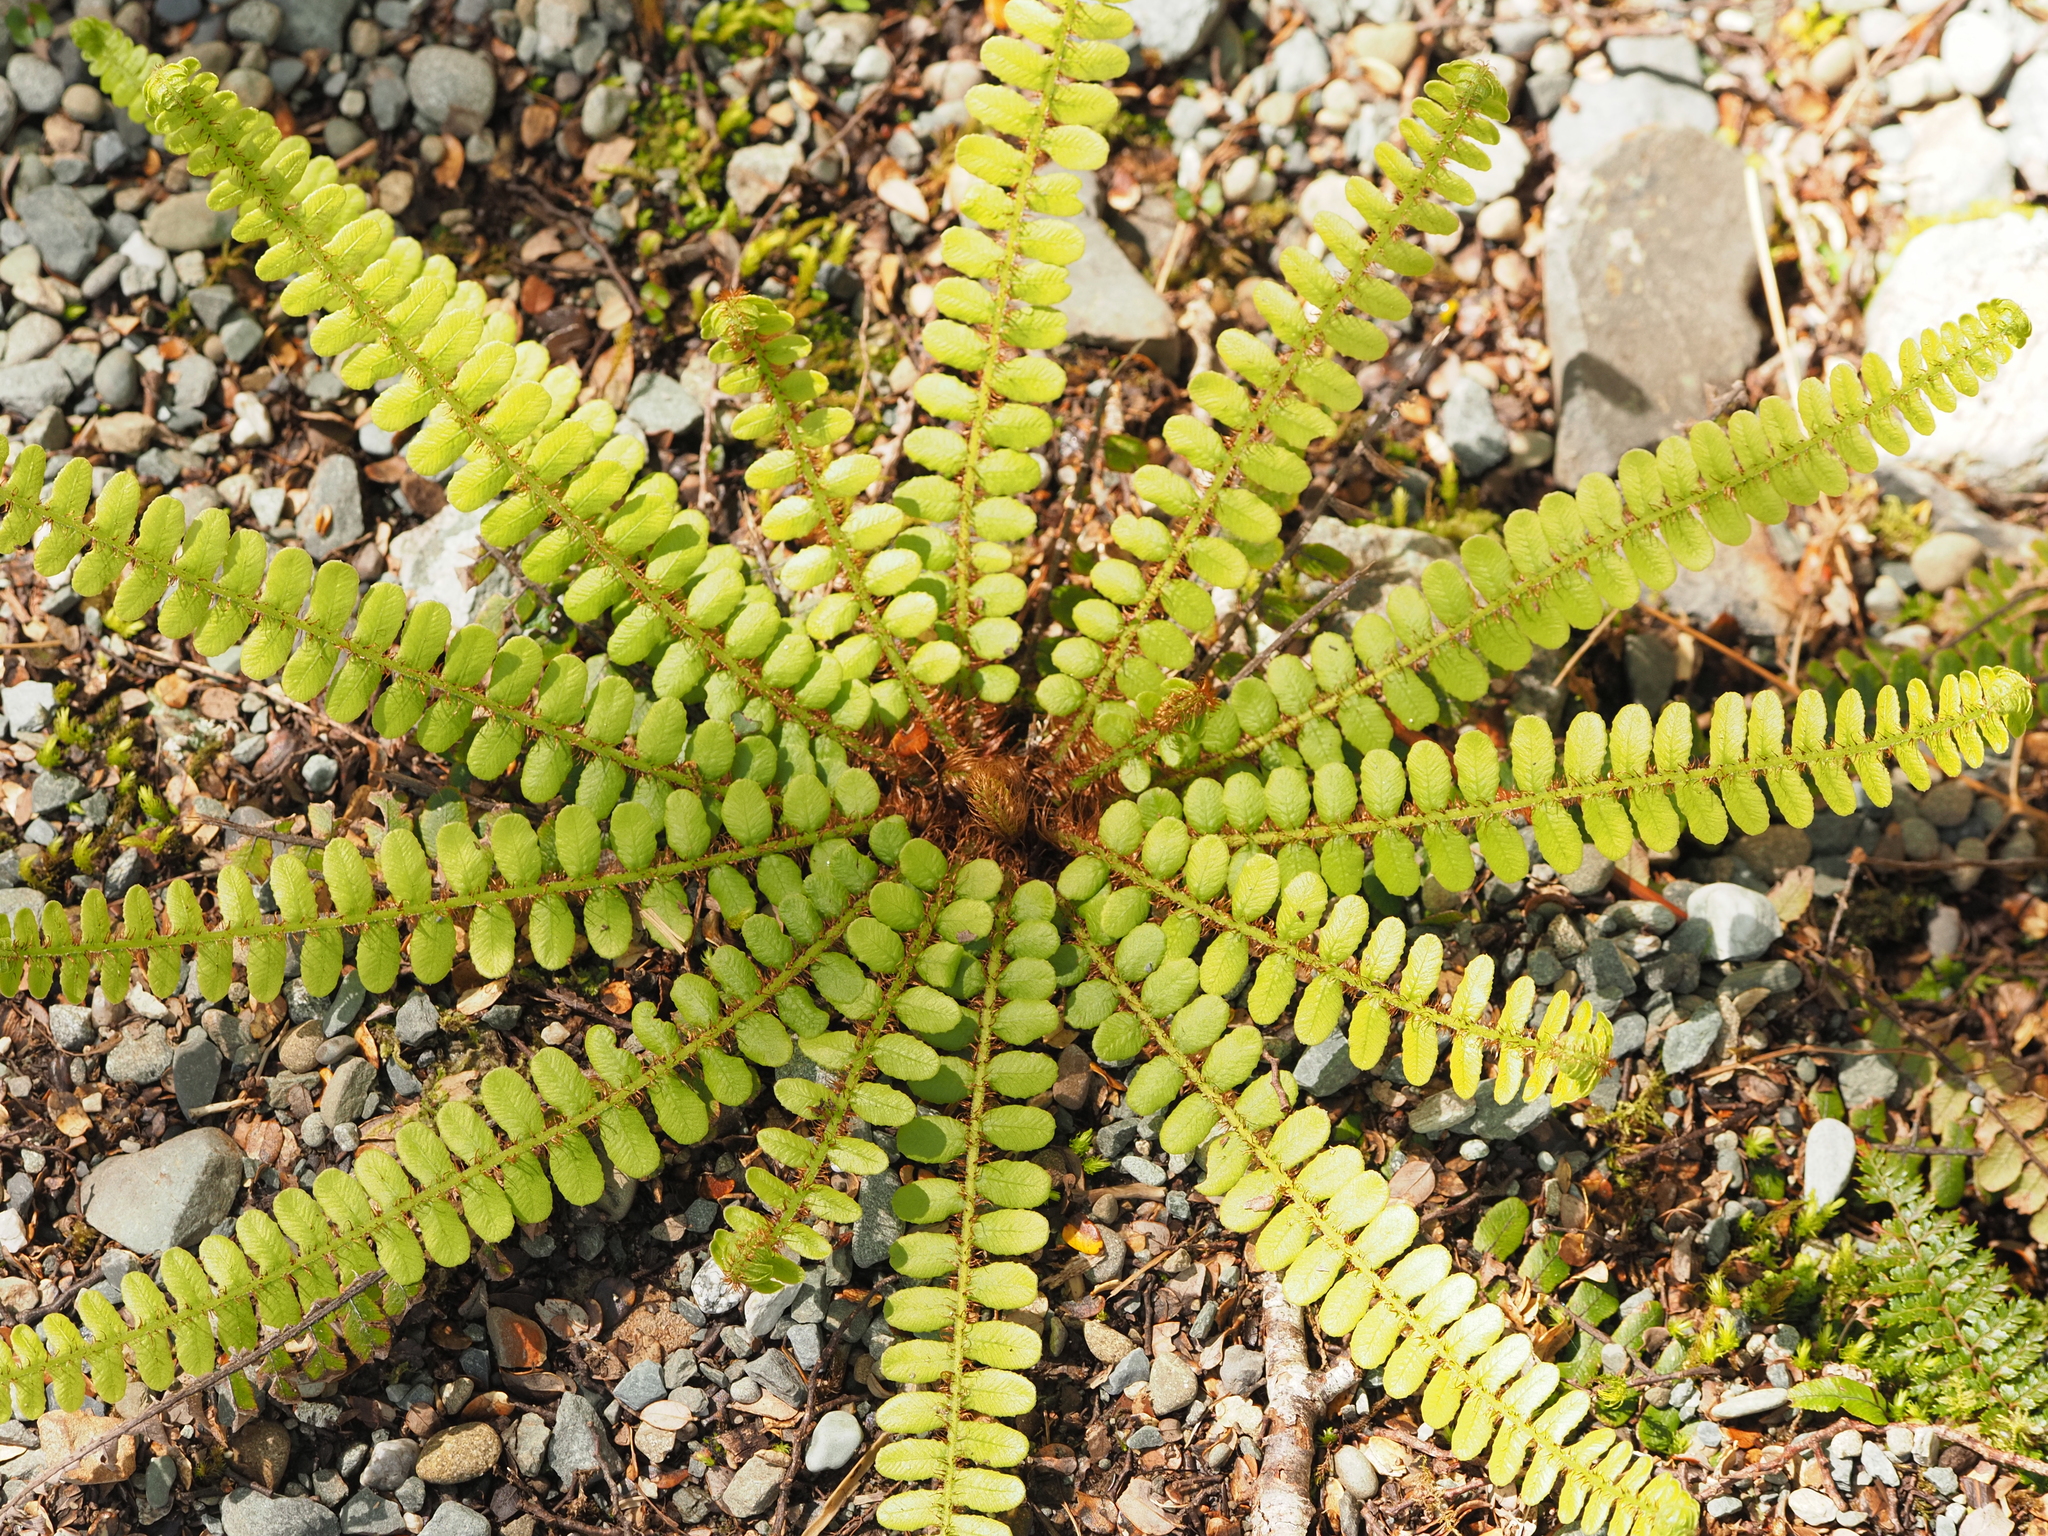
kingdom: Plantae
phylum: Tracheophyta
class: Polypodiopsida
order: Polypodiales
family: Blechnaceae
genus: Cranfillia
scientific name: Cranfillia fluviatilis
